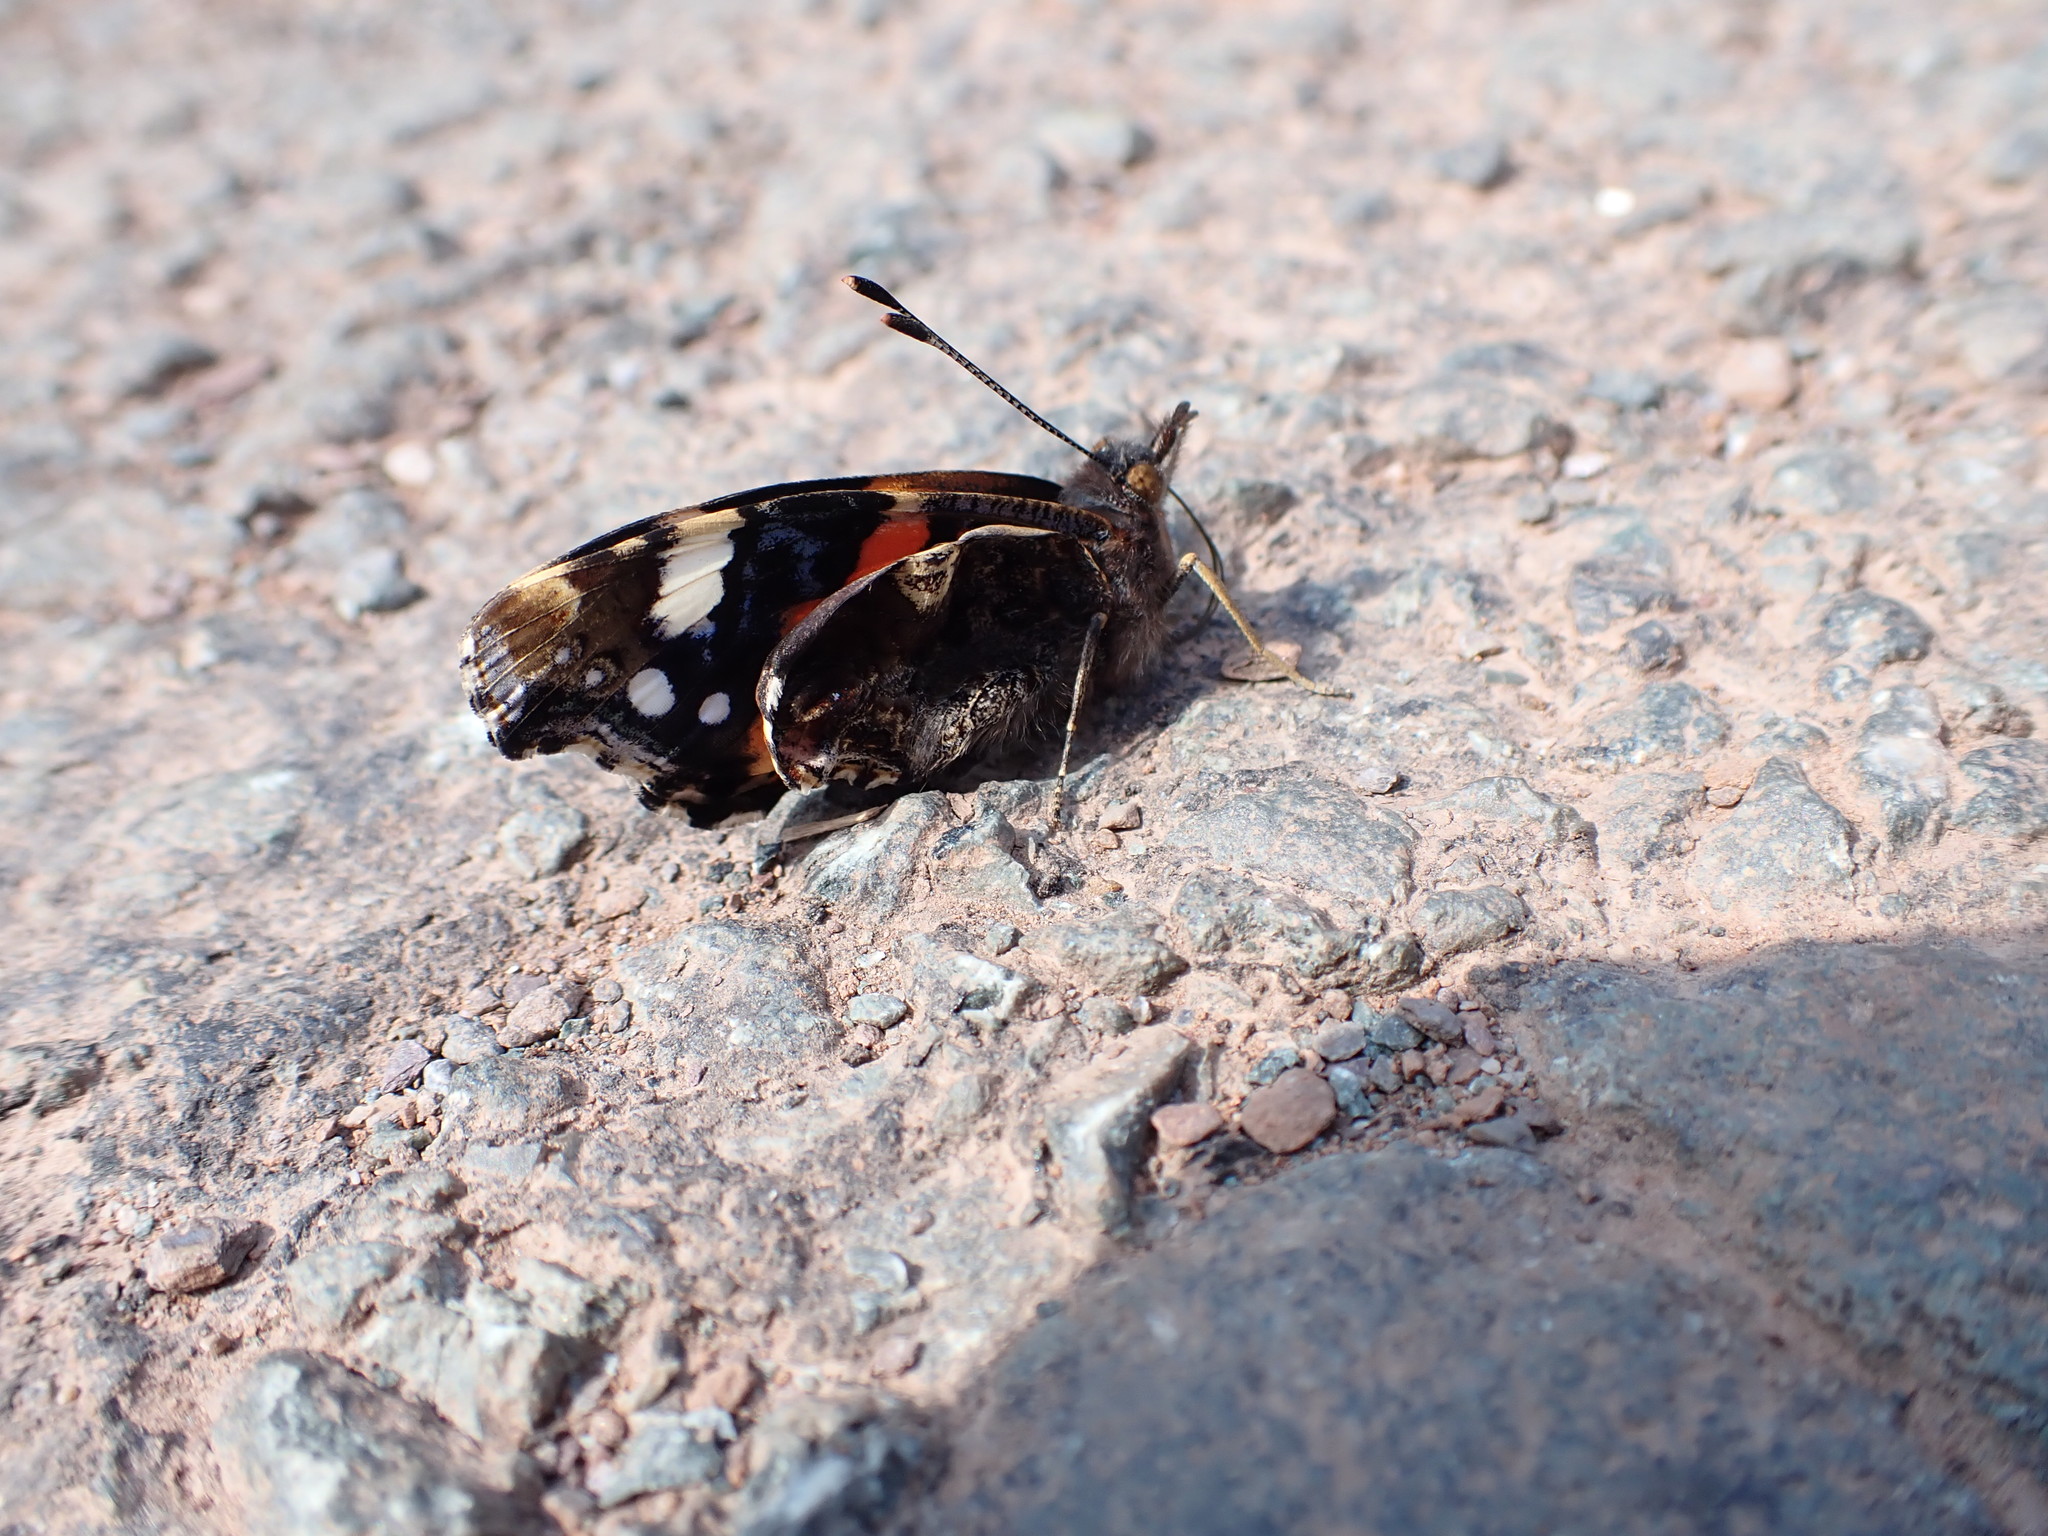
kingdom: Animalia
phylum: Arthropoda
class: Insecta
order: Lepidoptera
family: Nymphalidae
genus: Vanessa
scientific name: Vanessa atalanta
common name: Red admiral
